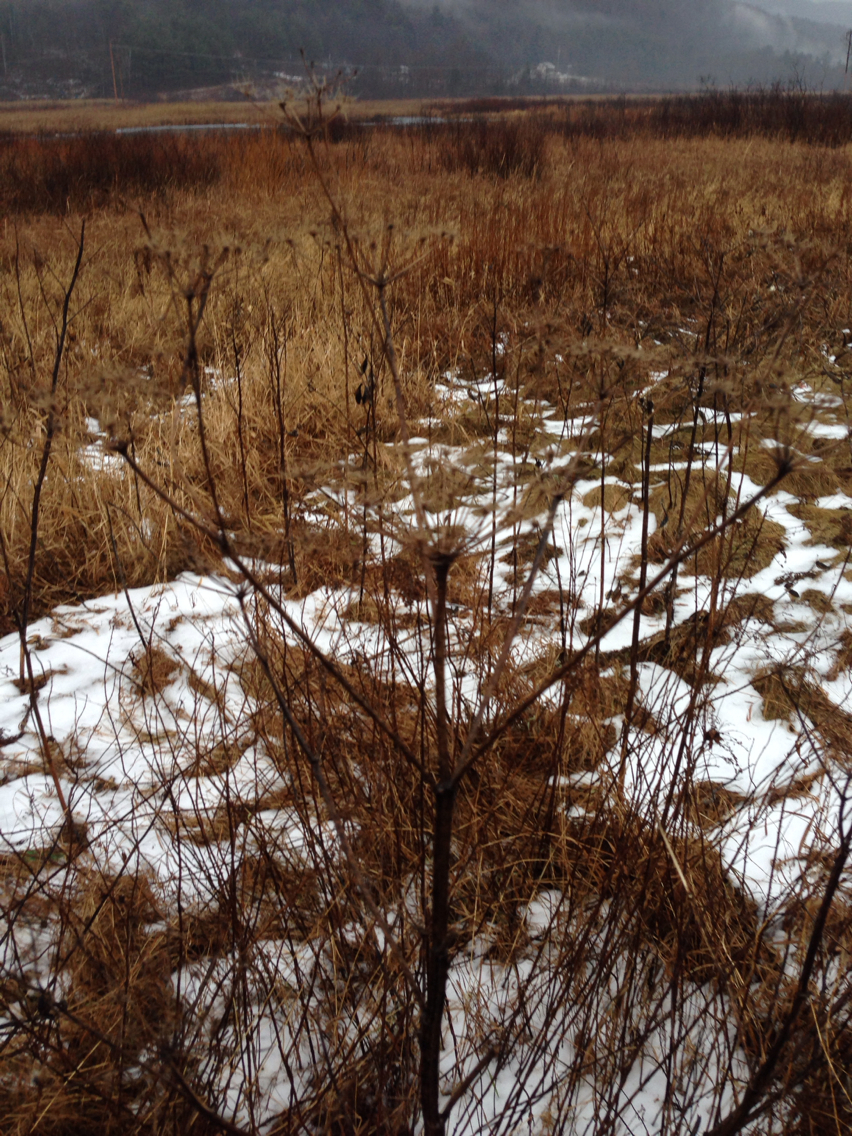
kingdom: Plantae
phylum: Tracheophyta
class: Magnoliopsida
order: Apiales
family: Apiaceae
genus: Pastinaca
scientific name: Pastinaca sativa
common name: Wild parsnip
